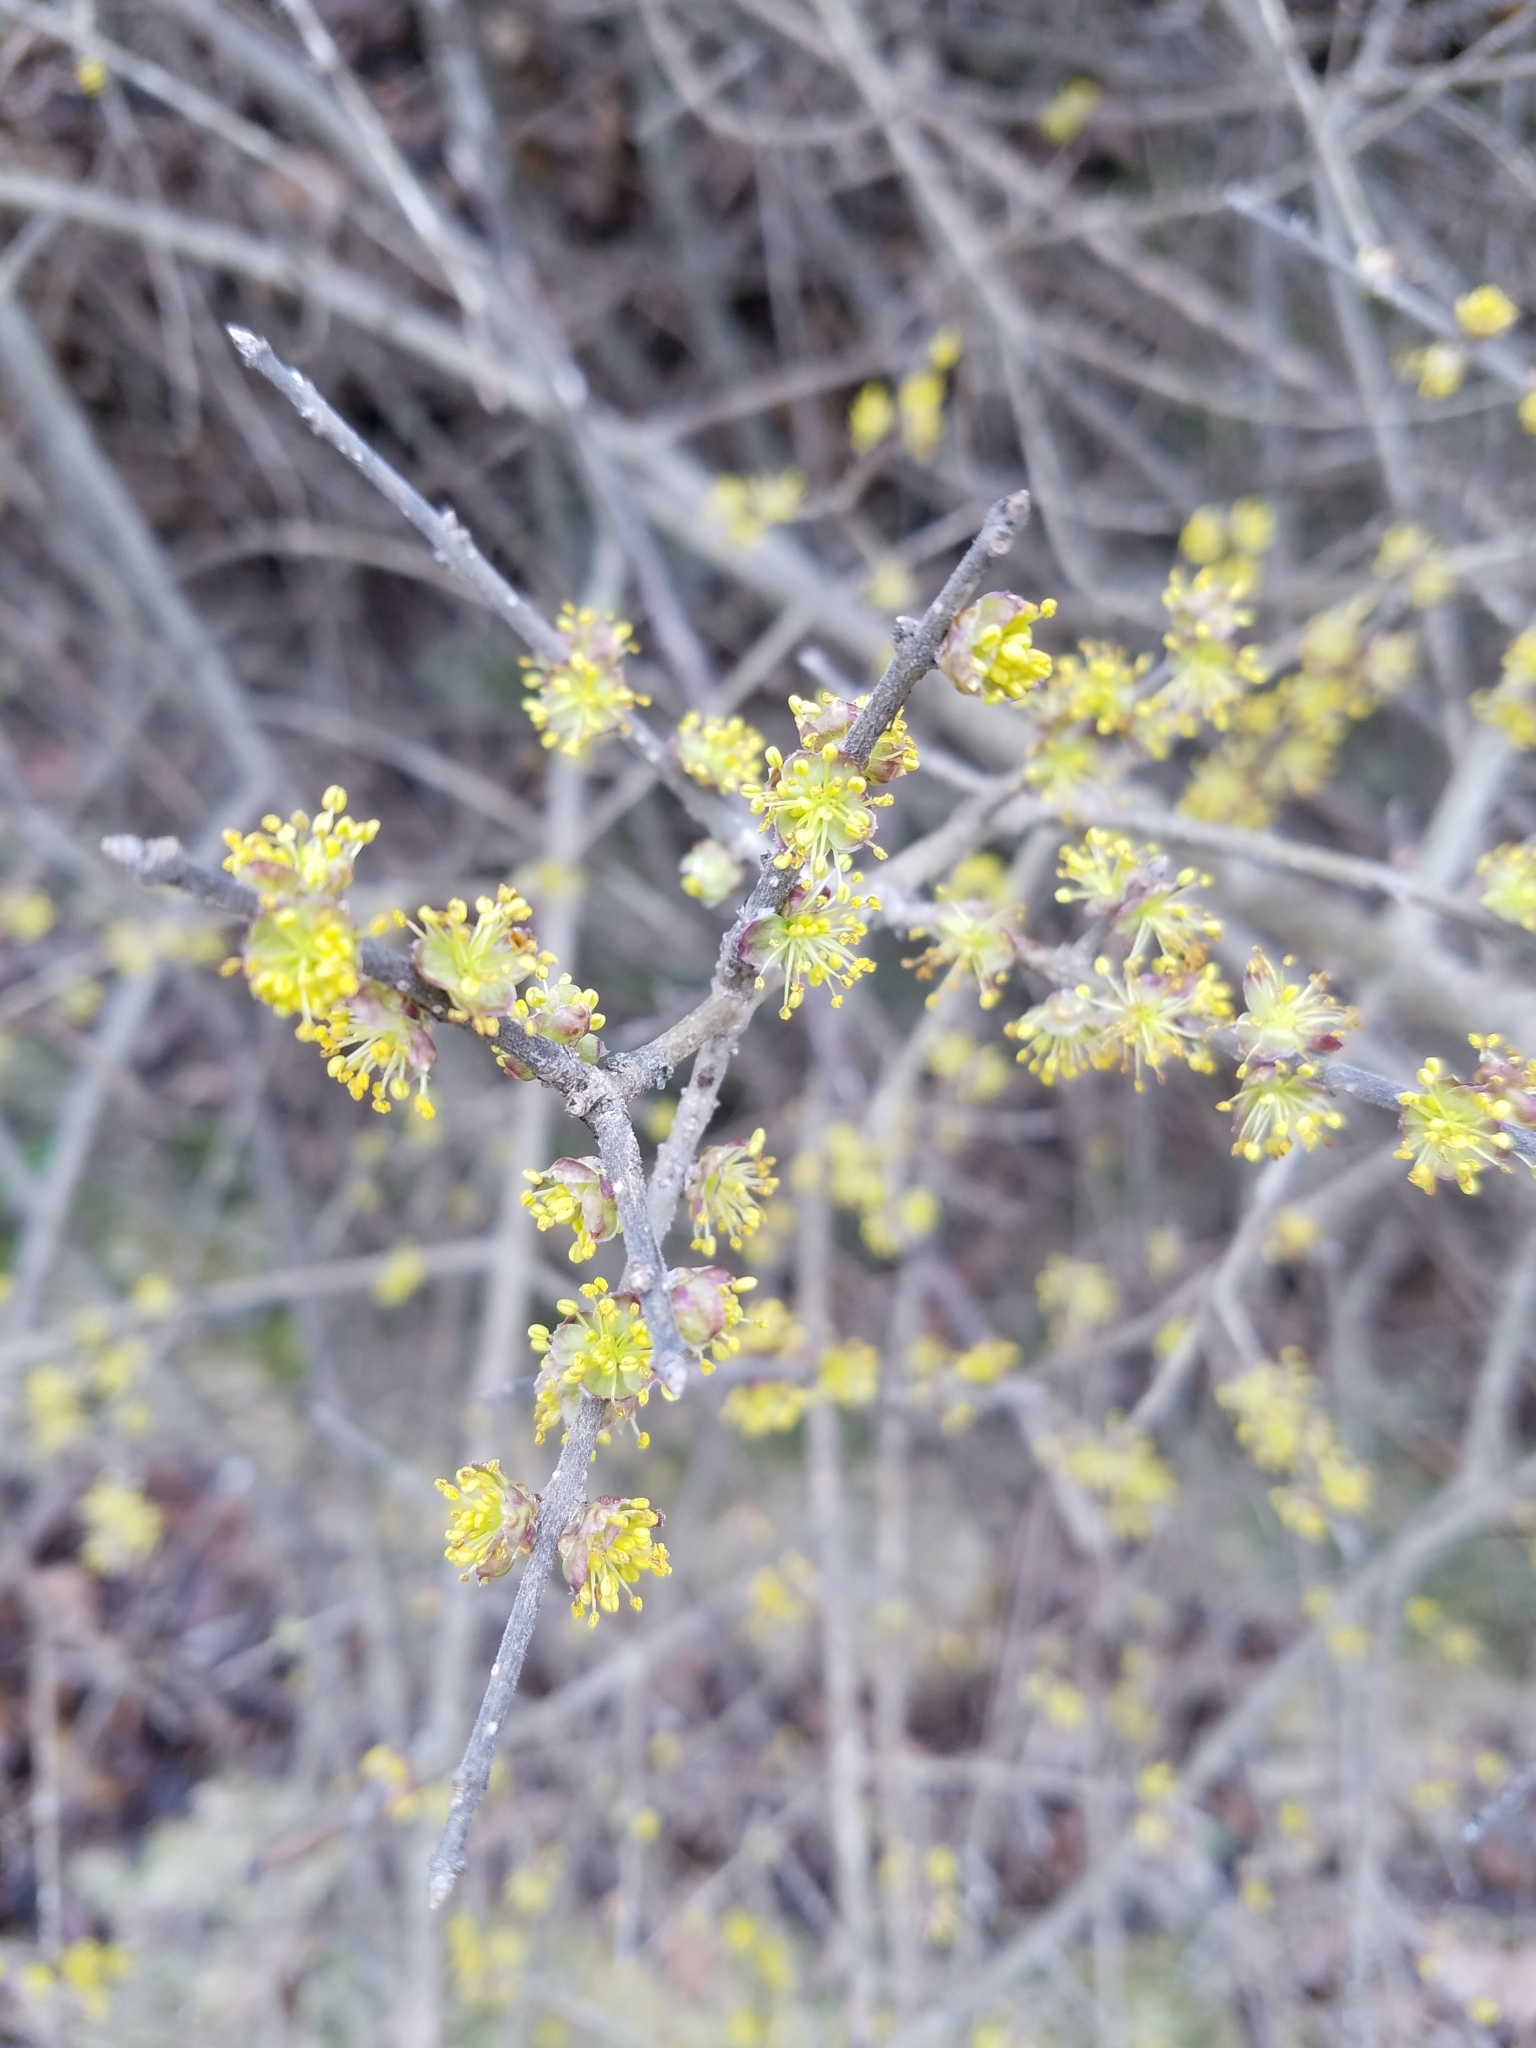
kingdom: Plantae
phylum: Tracheophyta
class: Magnoliopsida
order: Lamiales
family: Oleaceae
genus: Forestiera
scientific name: Forestiera pubescens
